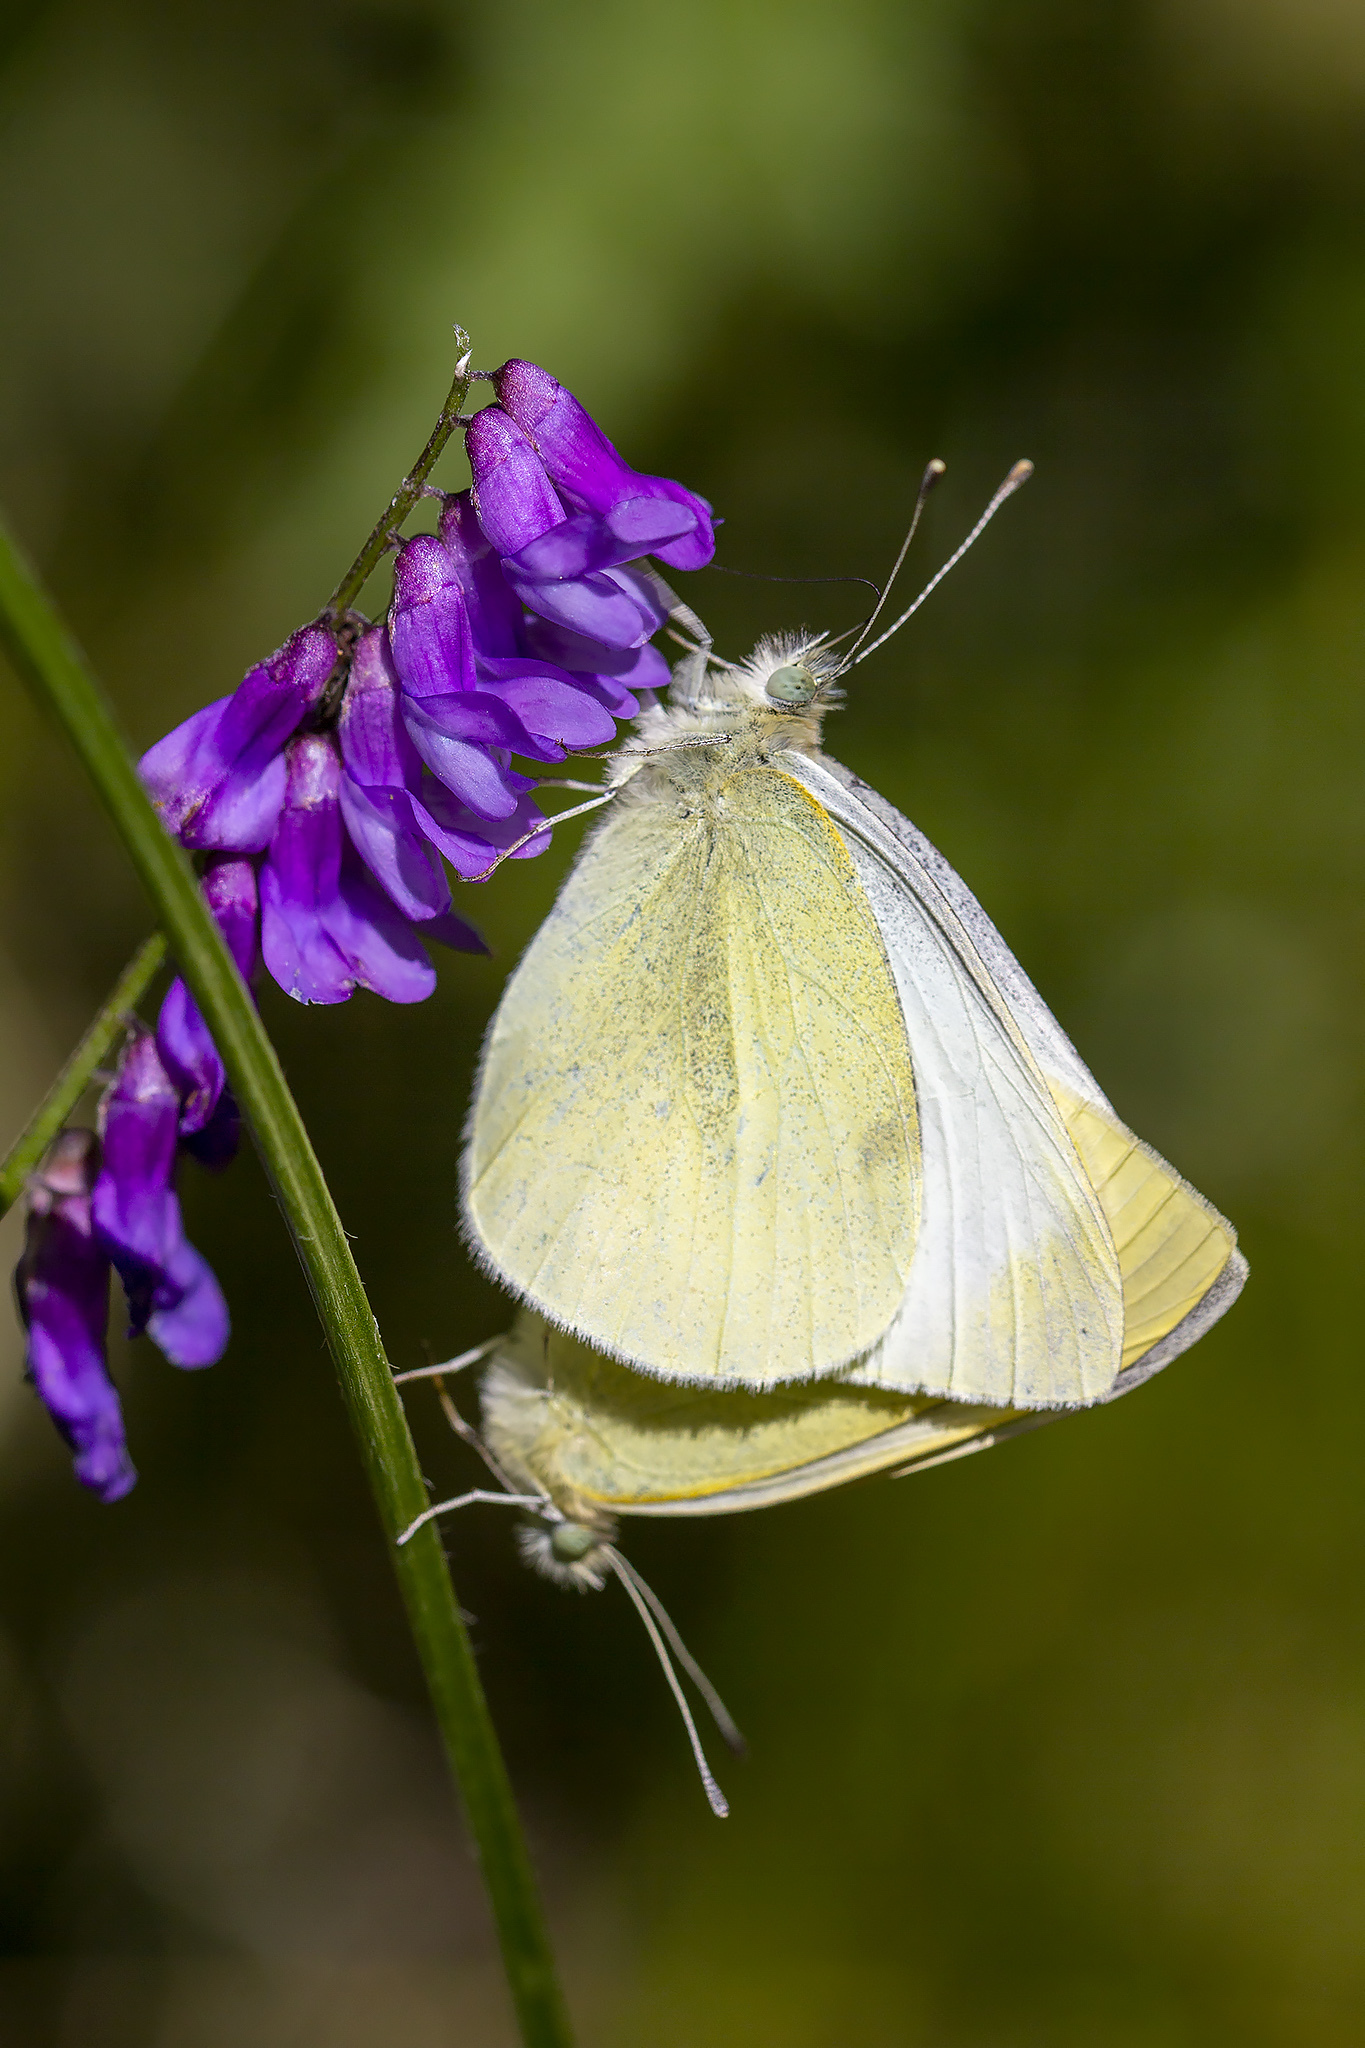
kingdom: Animalia
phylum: Arthropoda
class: Insecta
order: Lepidoptera
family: Pieridae
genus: Pieris
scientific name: Pieris rapae
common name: Small white
